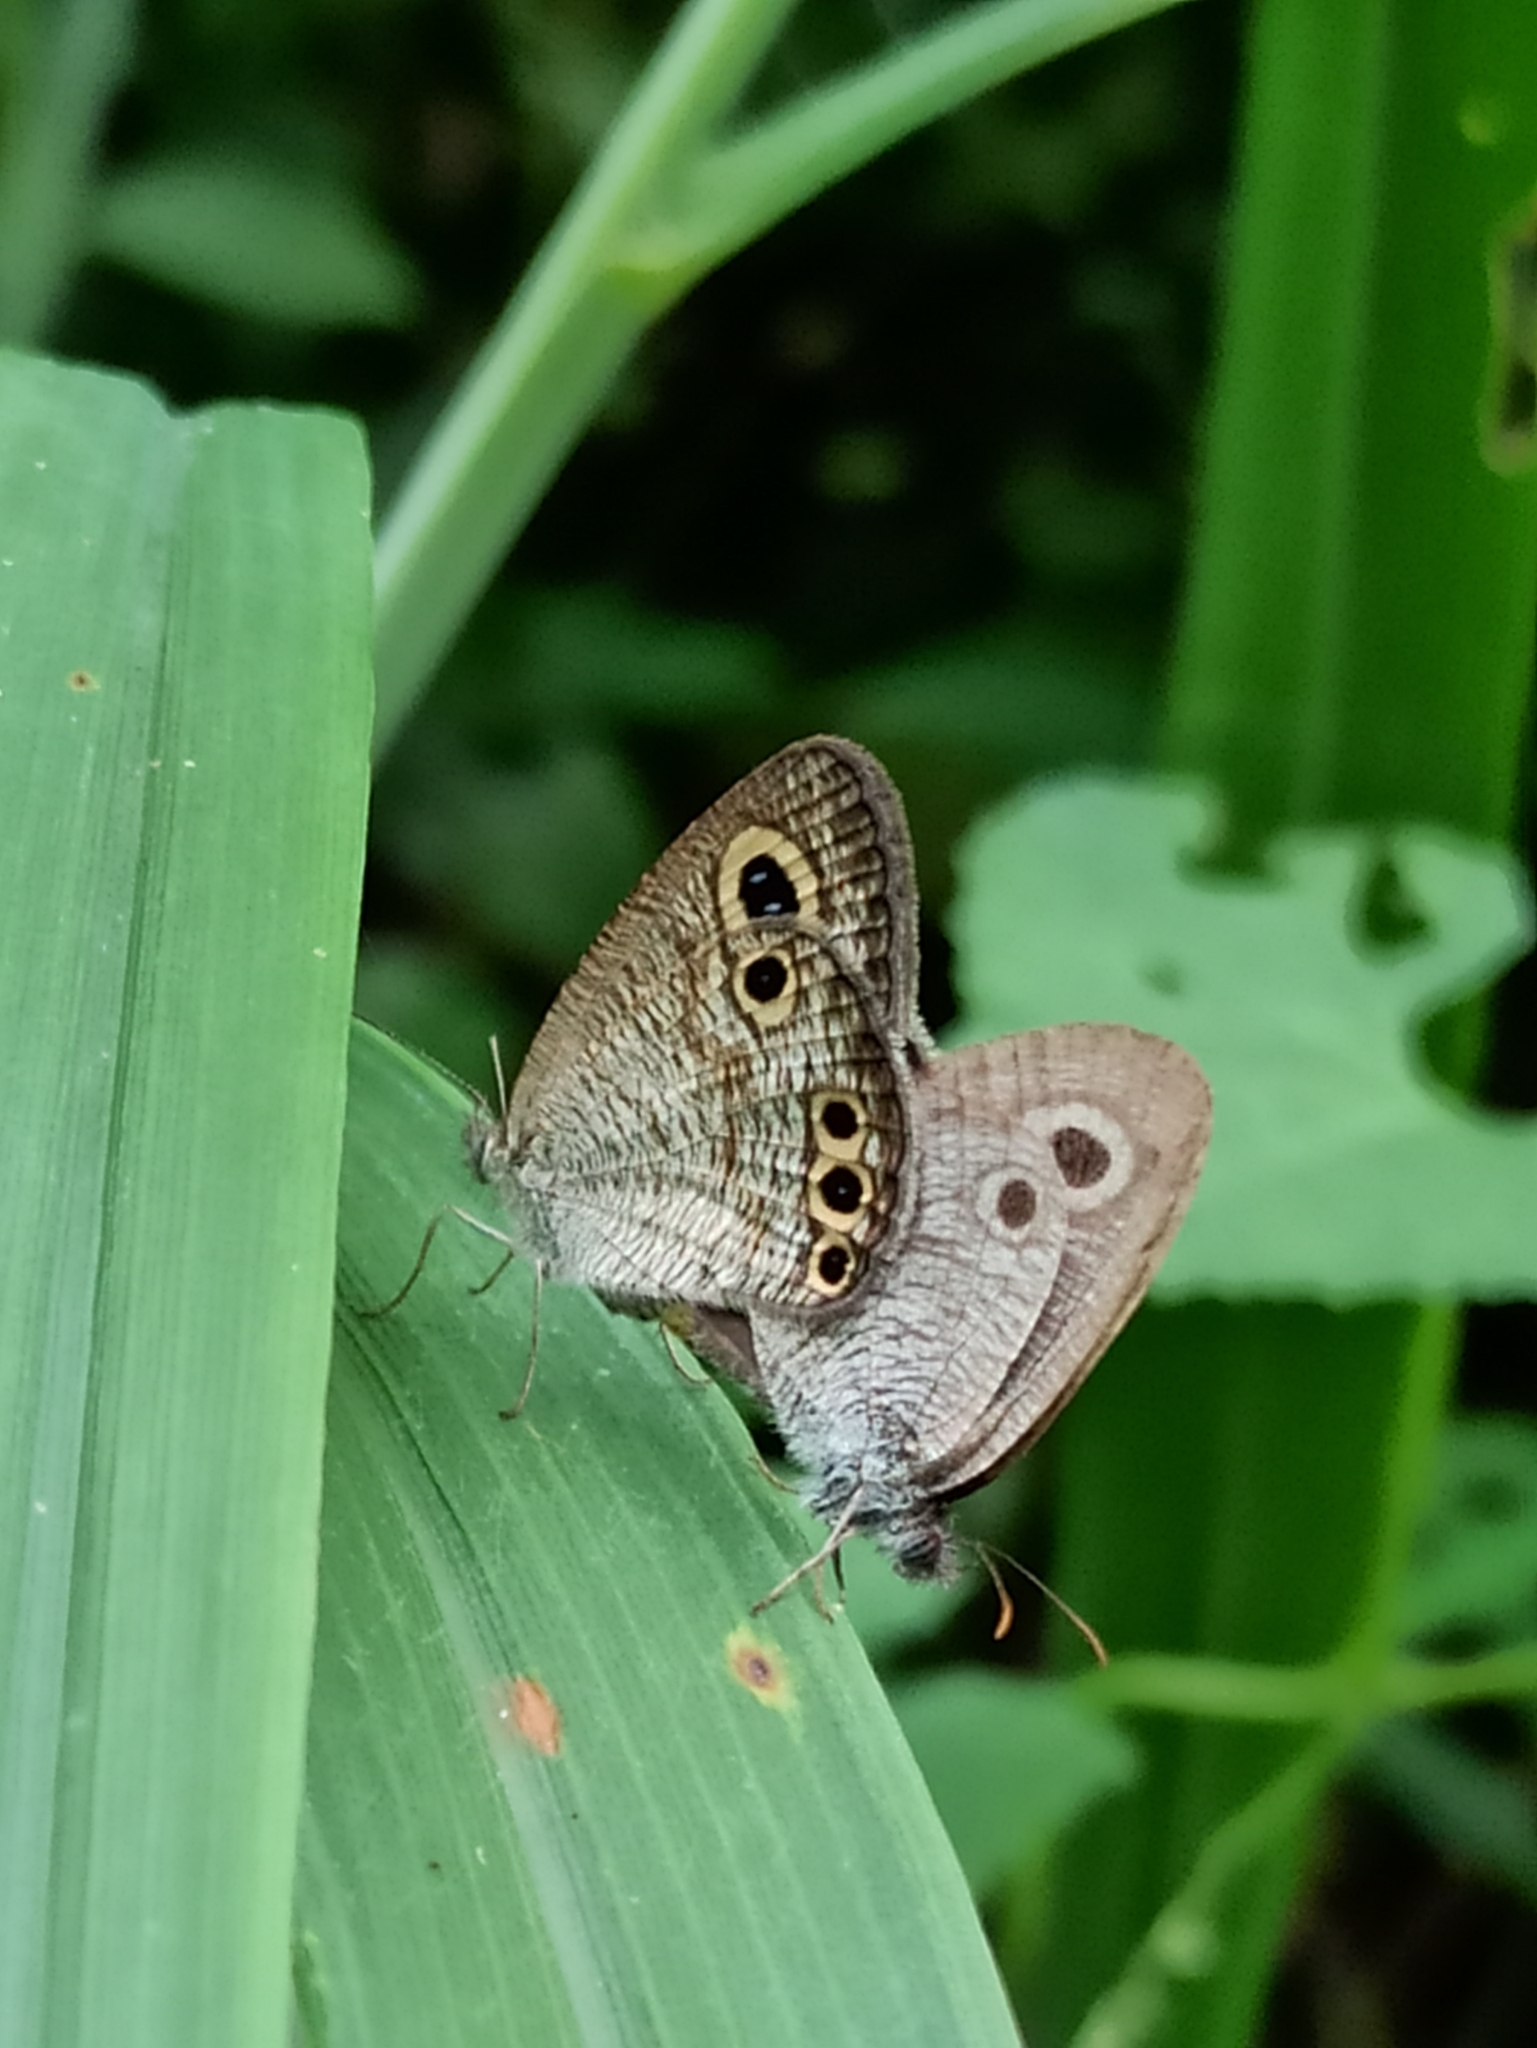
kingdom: Animalia
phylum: Arthropoda
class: Insecta
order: Lepidoptera
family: Nymphalidae
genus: Ypthima
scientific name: Ypthima huebneri
